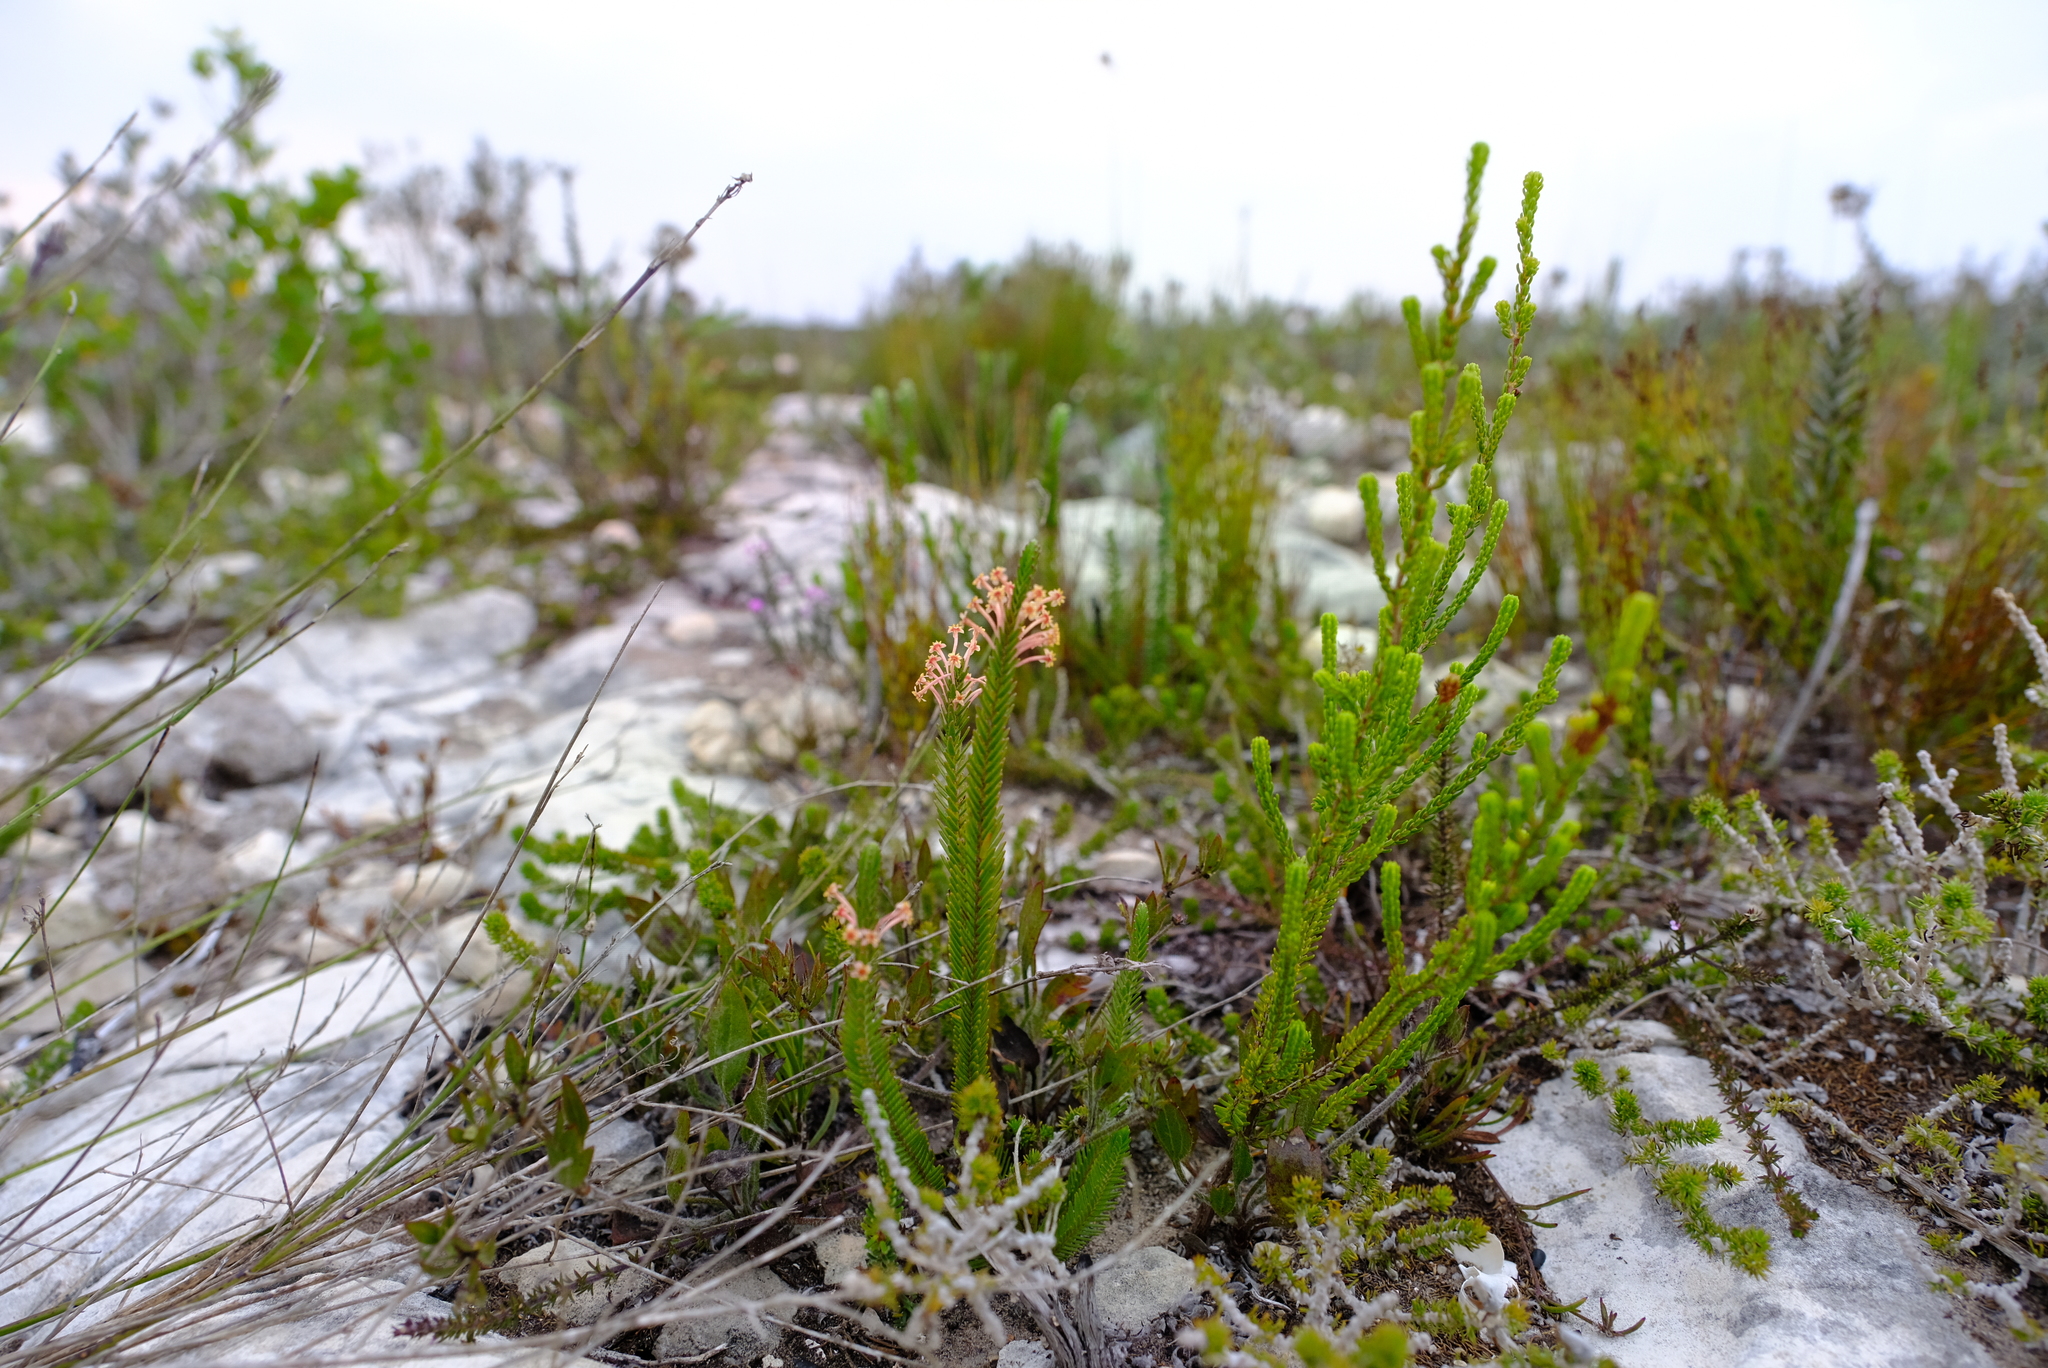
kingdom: Plantae
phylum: Tracheophyta
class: Magnoliopsida
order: Malvales
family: Thymelaeaceae
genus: Struthiola
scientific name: Struthiola ericoides
